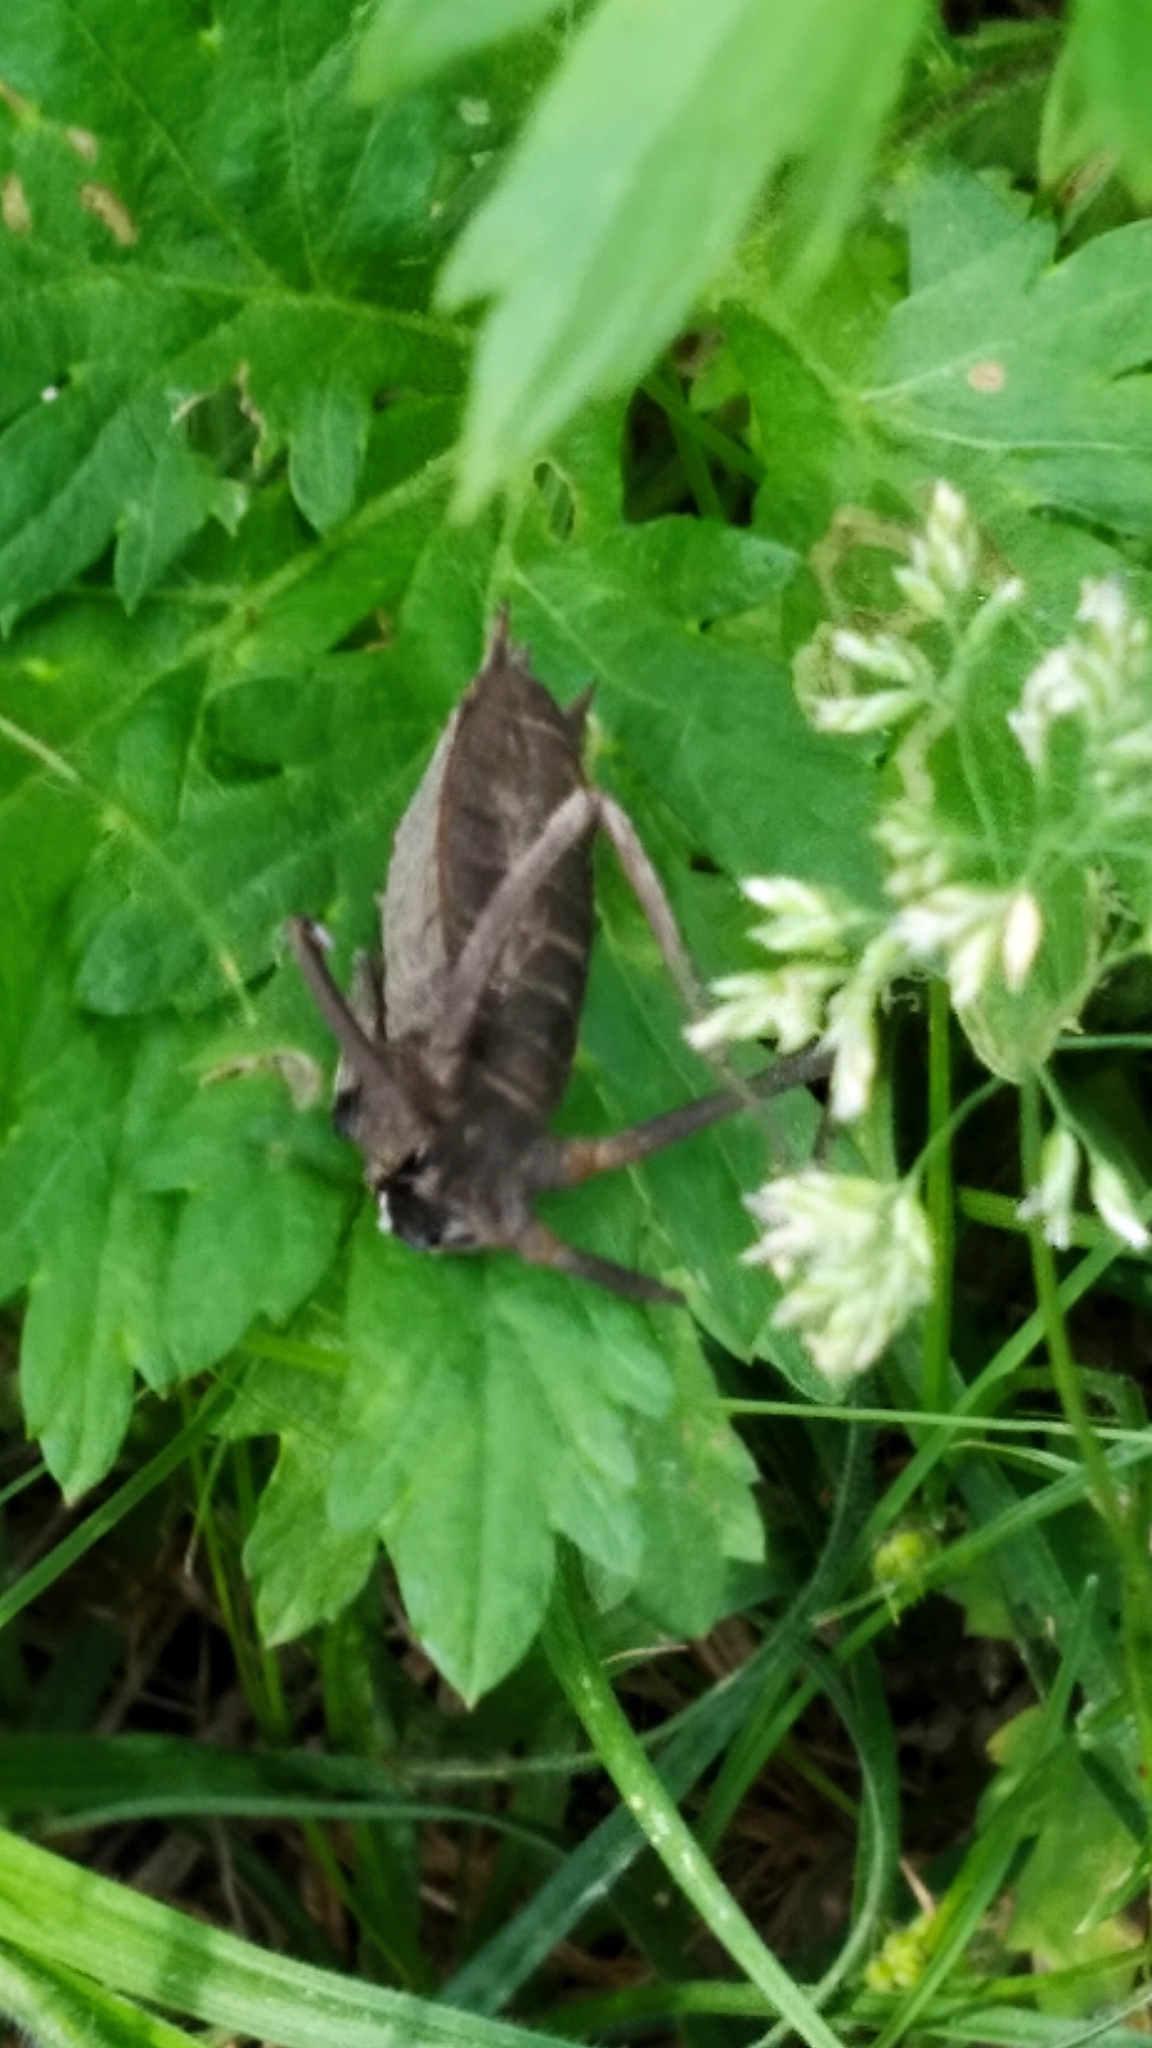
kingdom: Animalia
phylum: Arthropoda
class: Insecta
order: Odonata
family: Corduliidae
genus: Epitheca
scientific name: Epitheca bimaculata
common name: Eurasian baskettail
